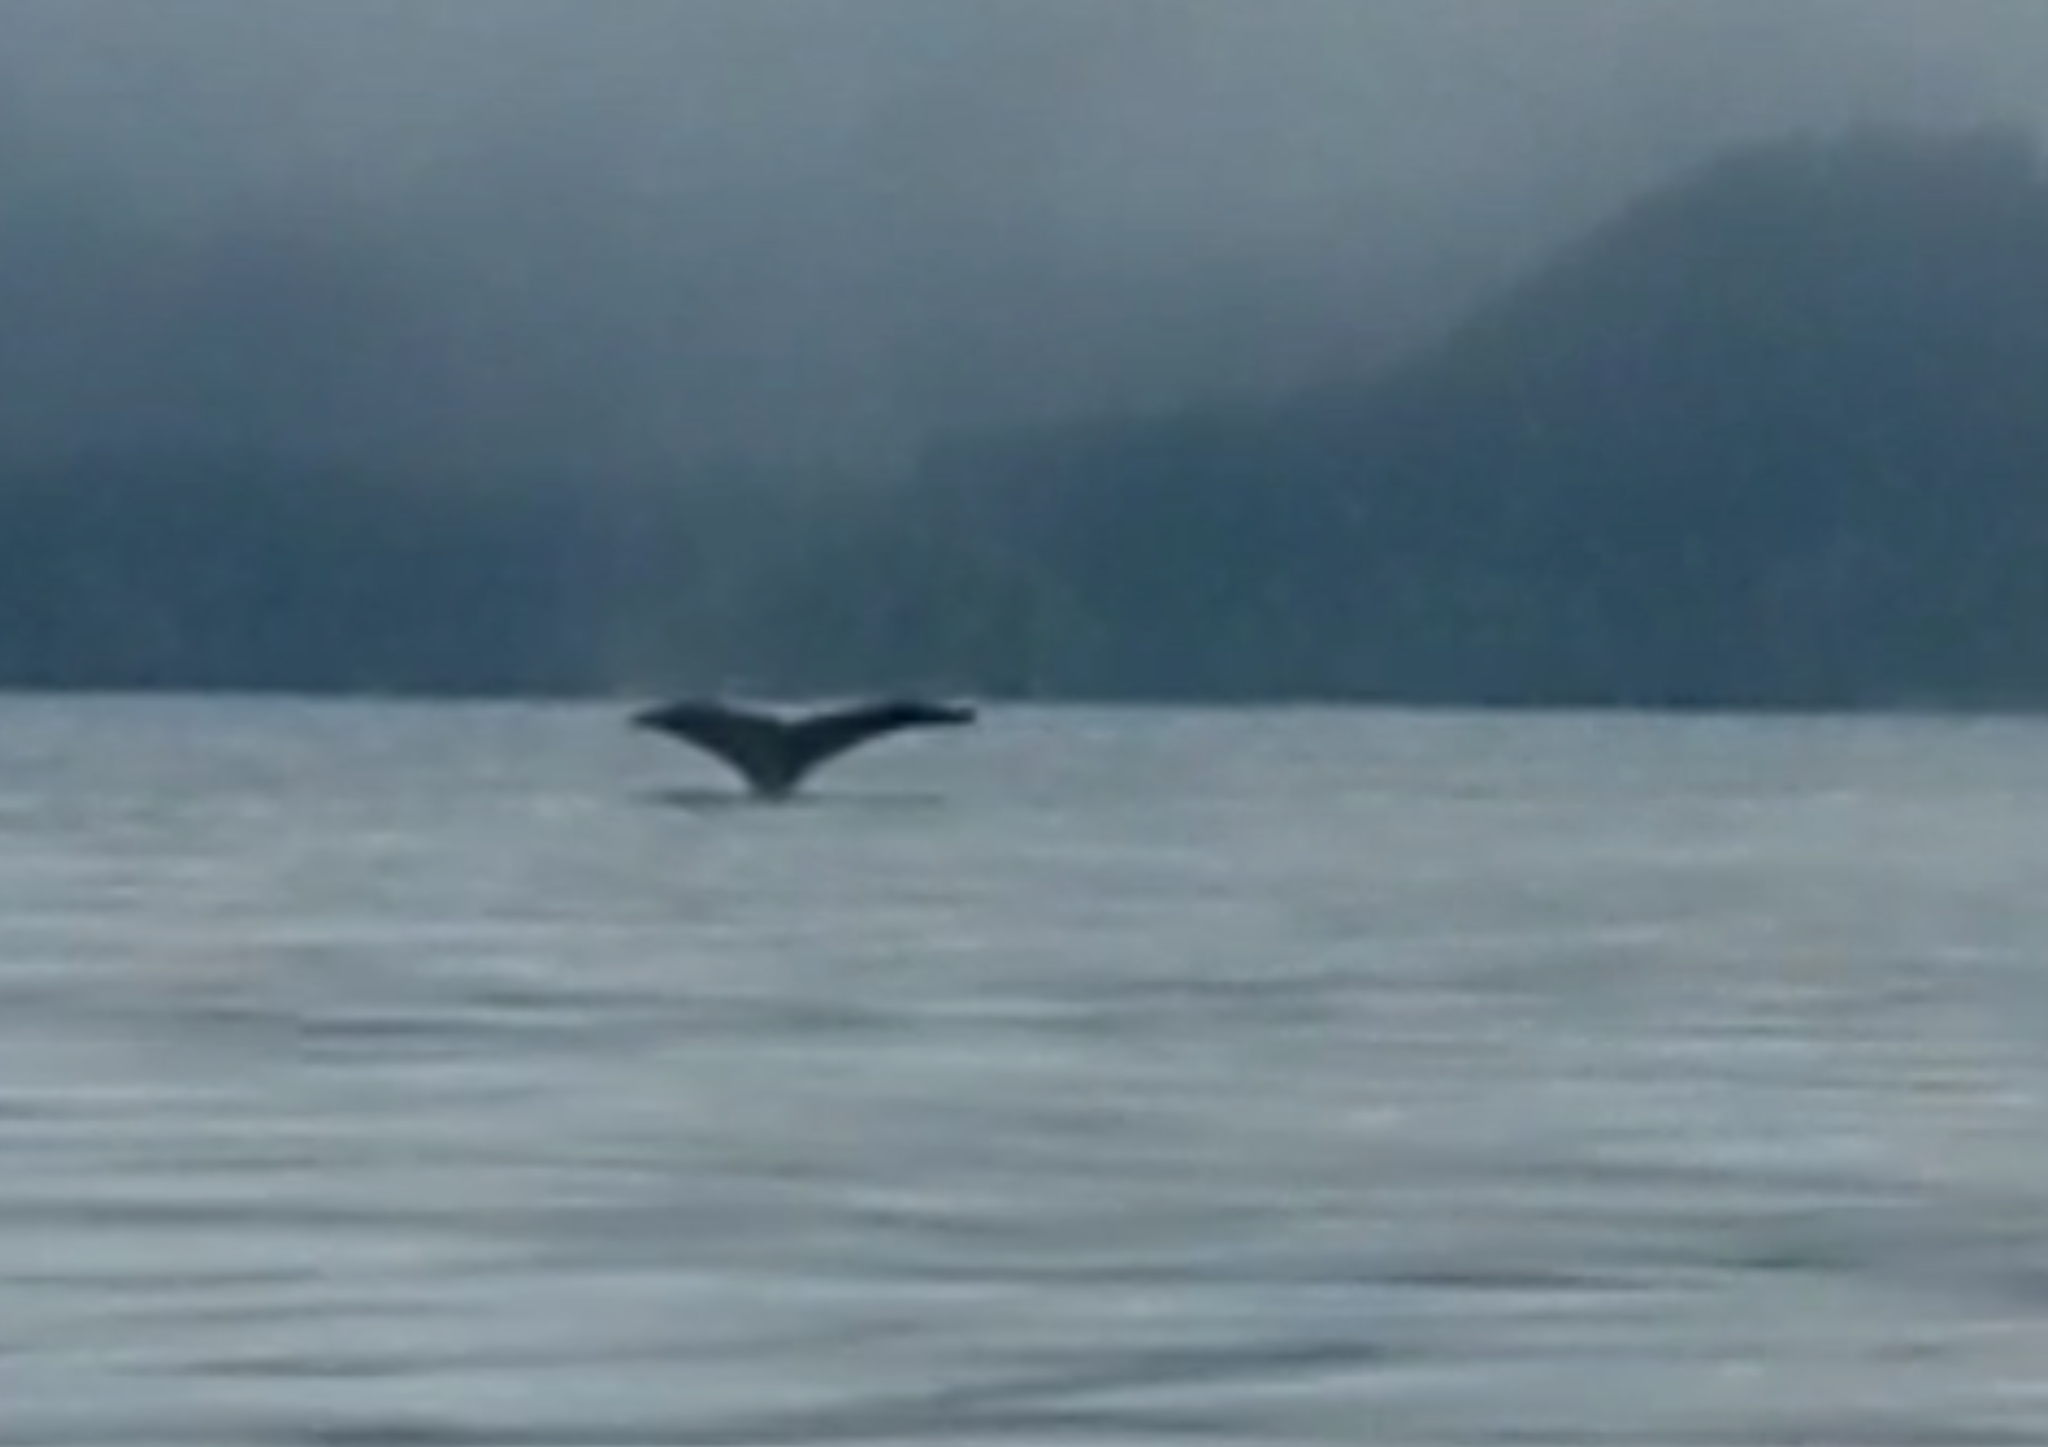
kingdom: Animalia
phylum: Chordata
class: Mammalia
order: Cetacea
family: Balaenopteridae
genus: Megaptera
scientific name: Megaptera novaeangliae
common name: Humpback whale
